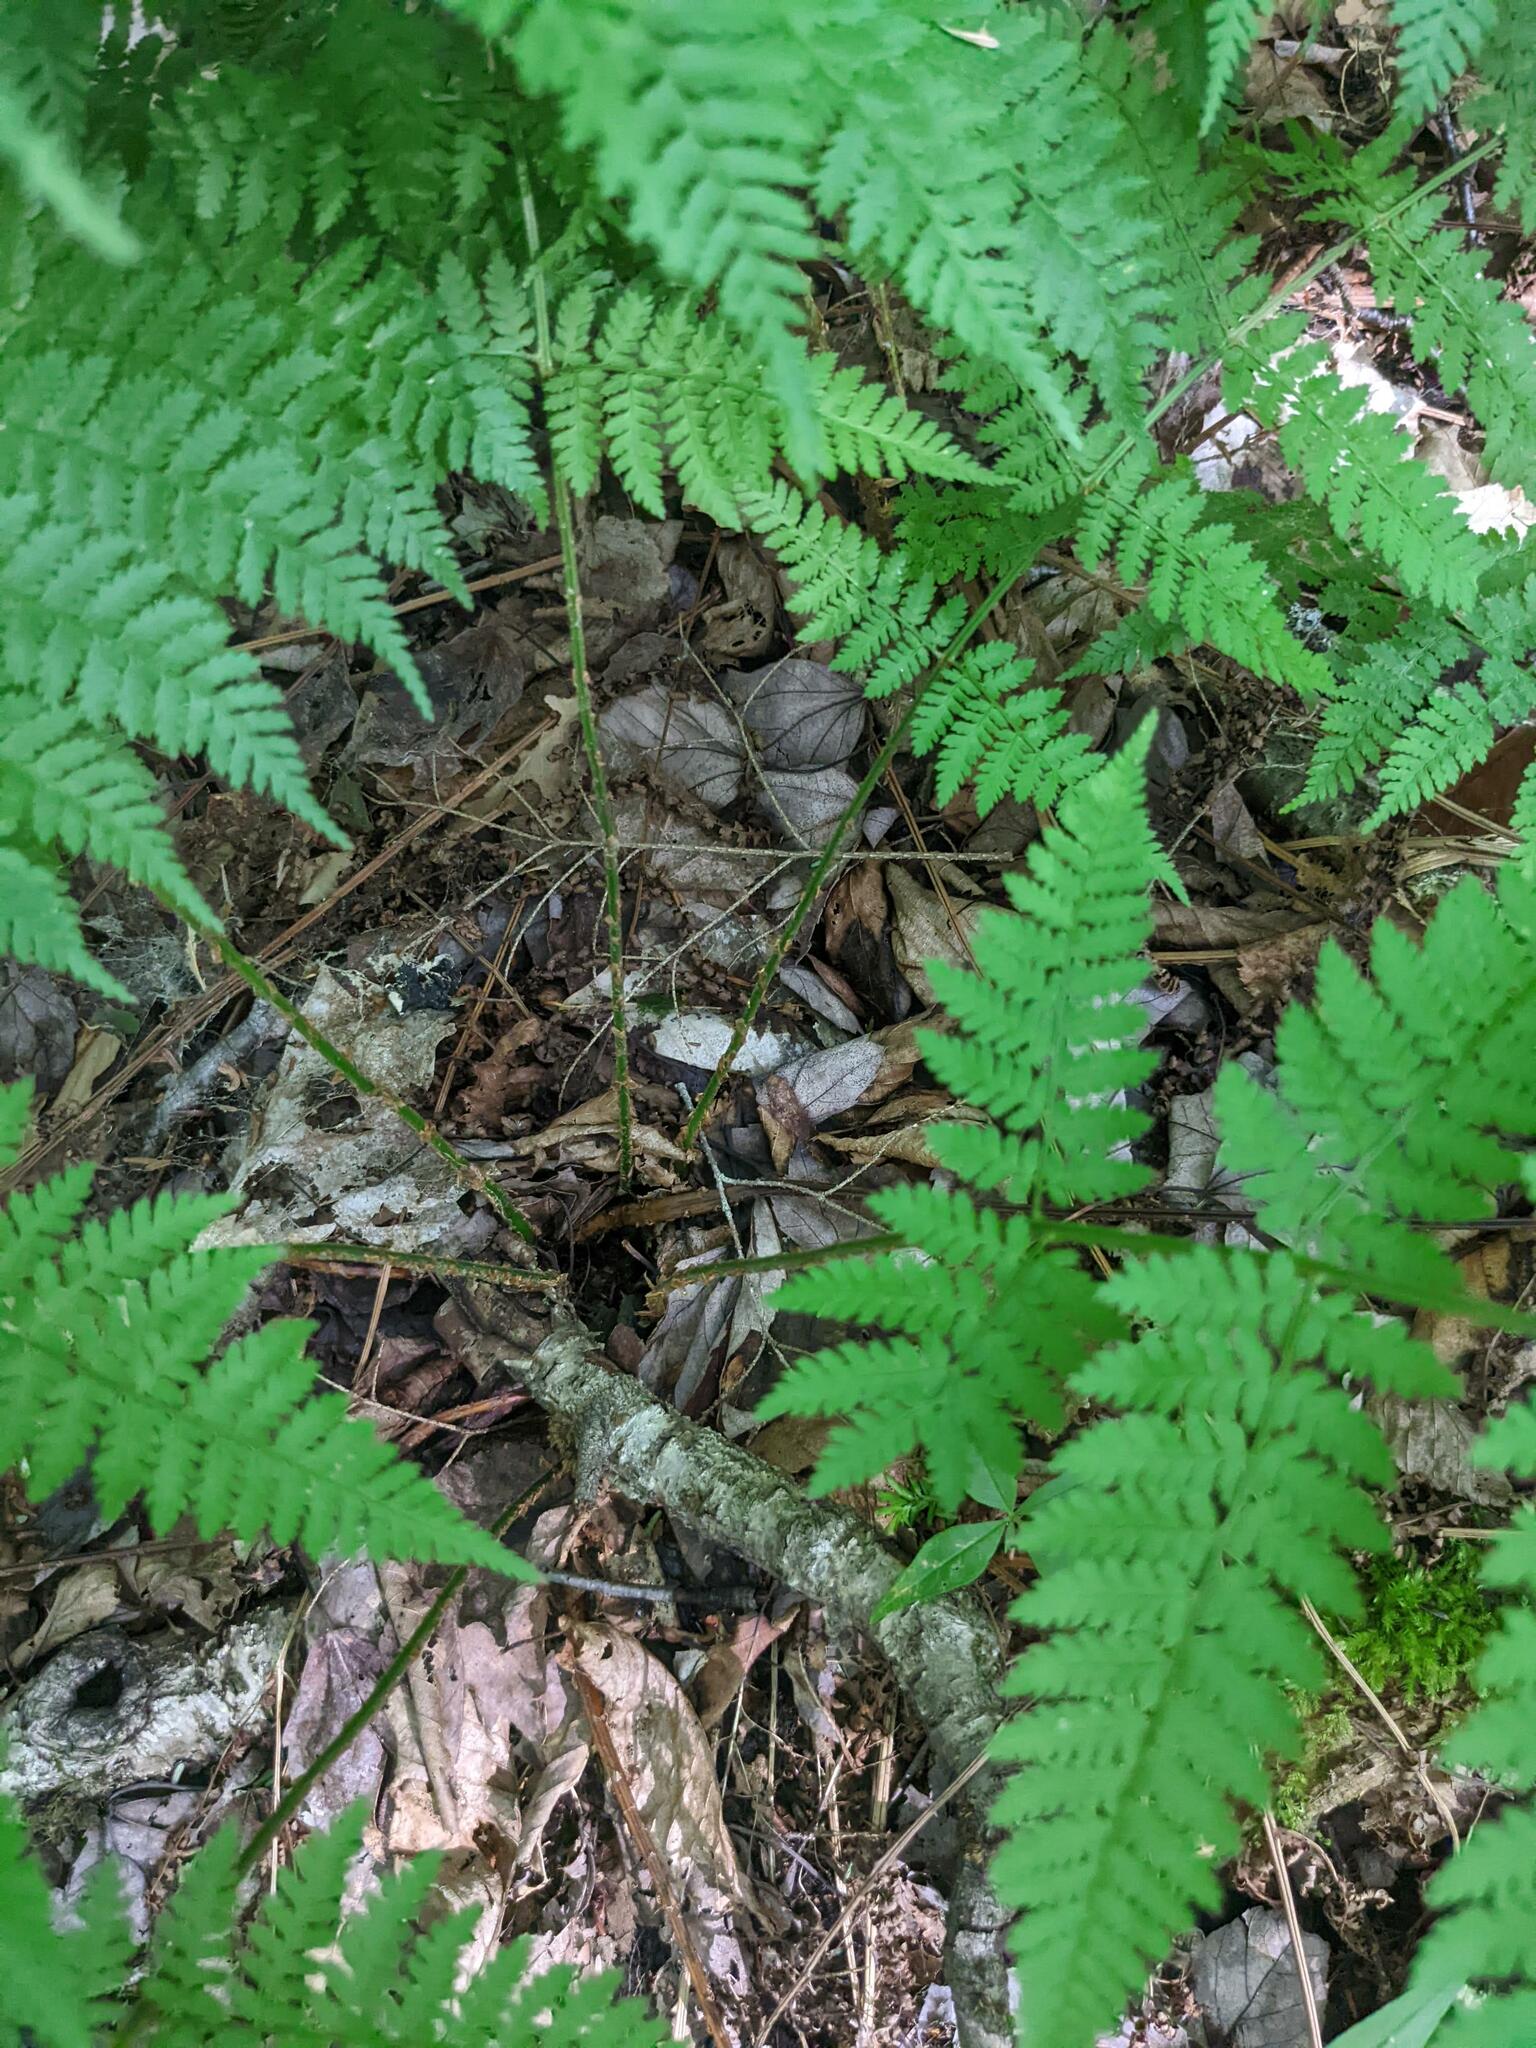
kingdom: Plantae
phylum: Tracheophyta
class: Polypodiopsida
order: Polypodiales
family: Dryopteridaceae
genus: Dryopteris
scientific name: Dryopteris intermedia
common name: Evergreen wood fern
